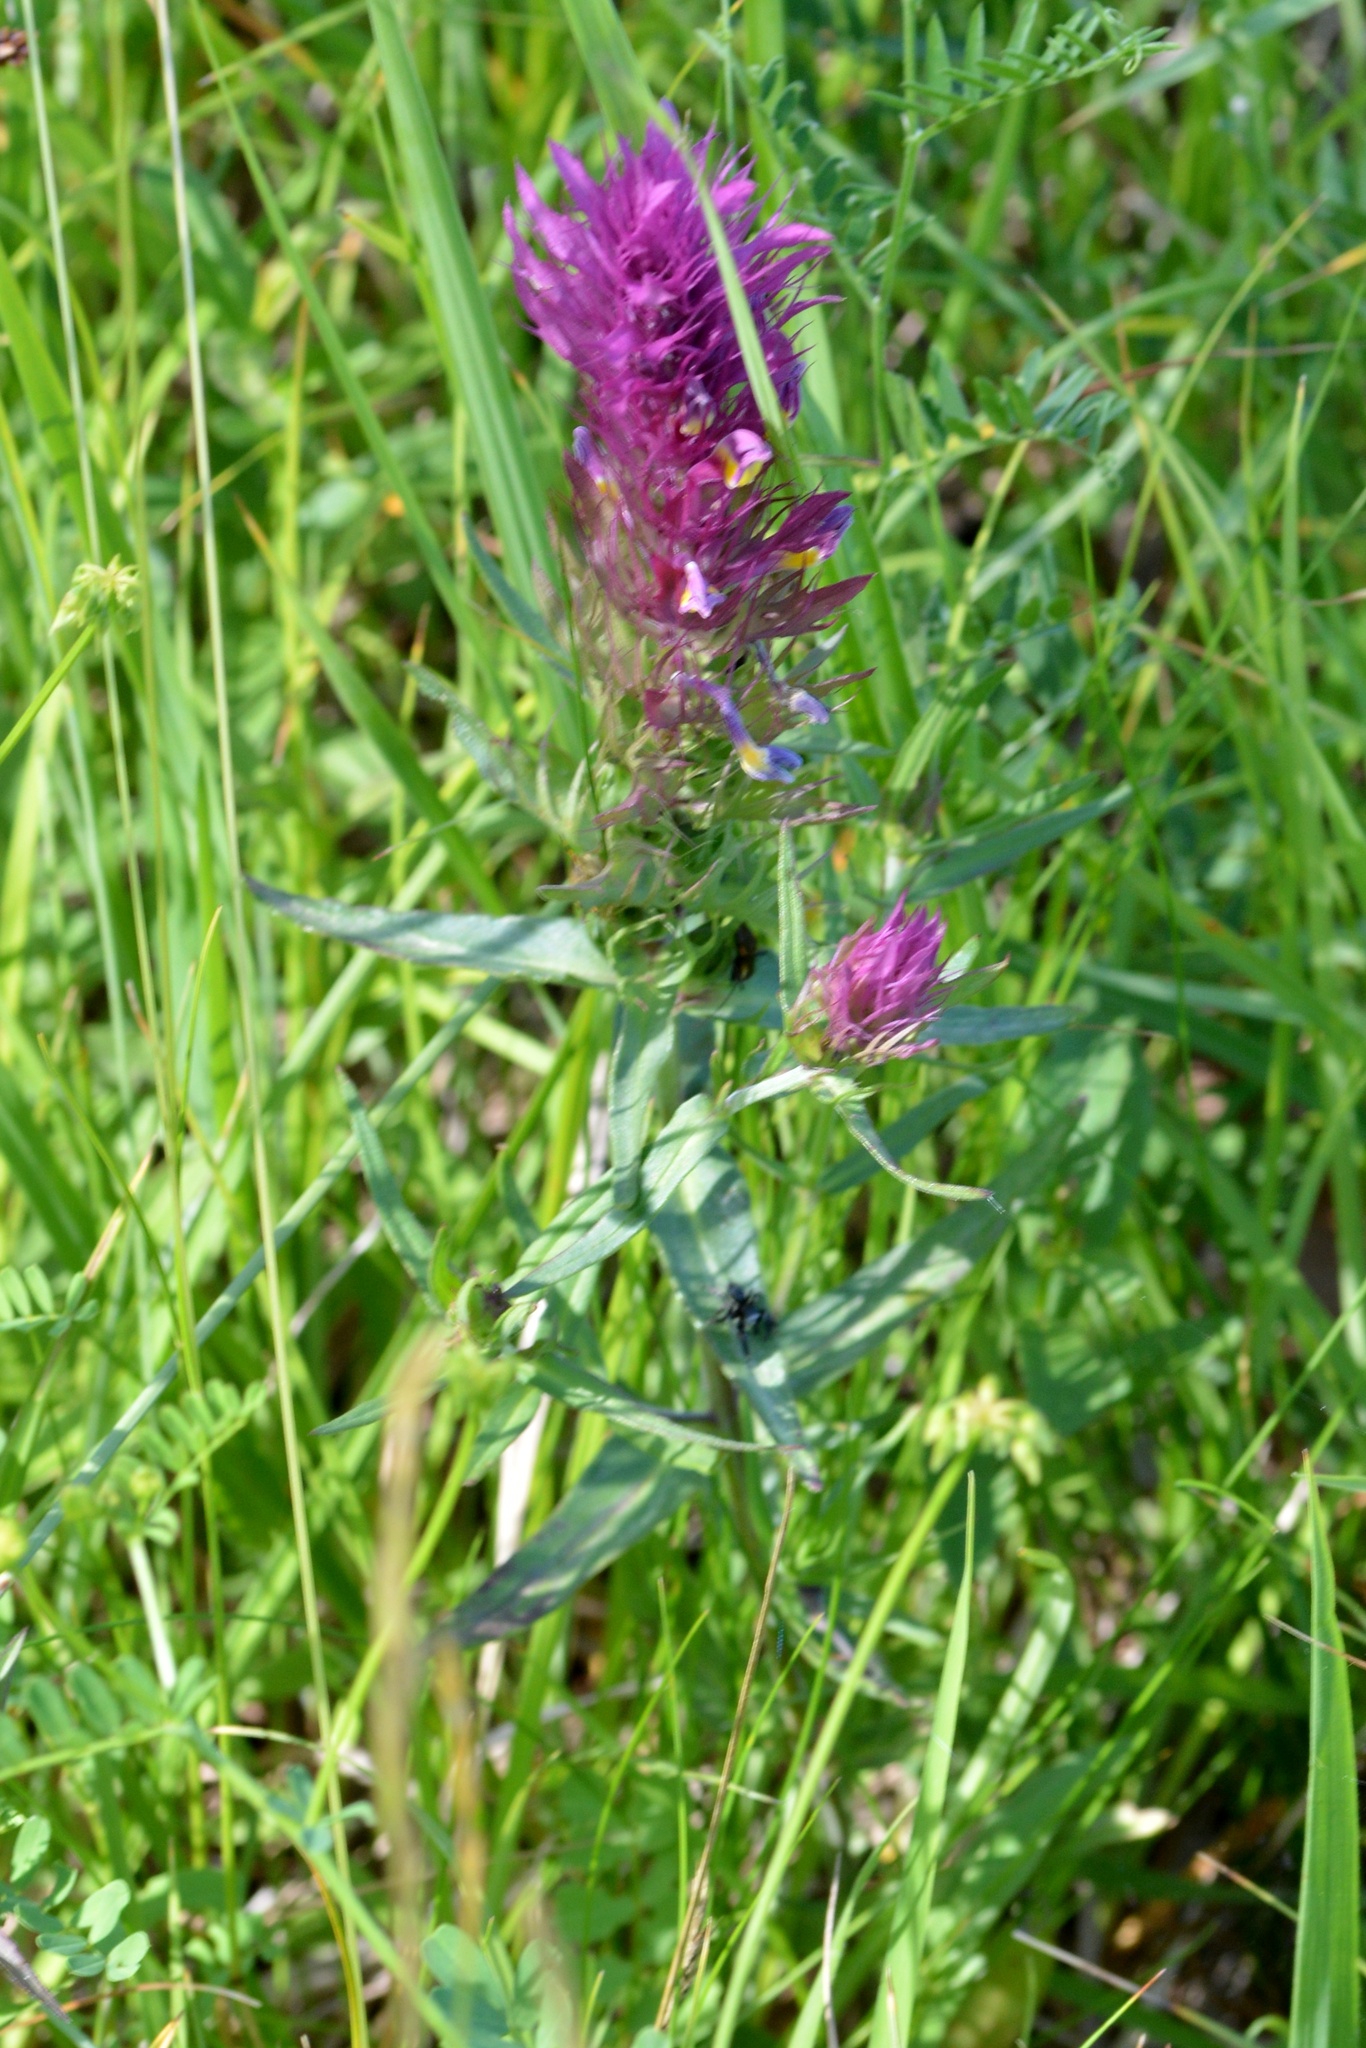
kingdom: Plantae
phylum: Tracheophyta
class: Magnoliopsida
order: Lamiales
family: Orobanchaceae
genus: Melampyrum
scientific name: Melampyrum arvense
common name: Field cow-wheat
